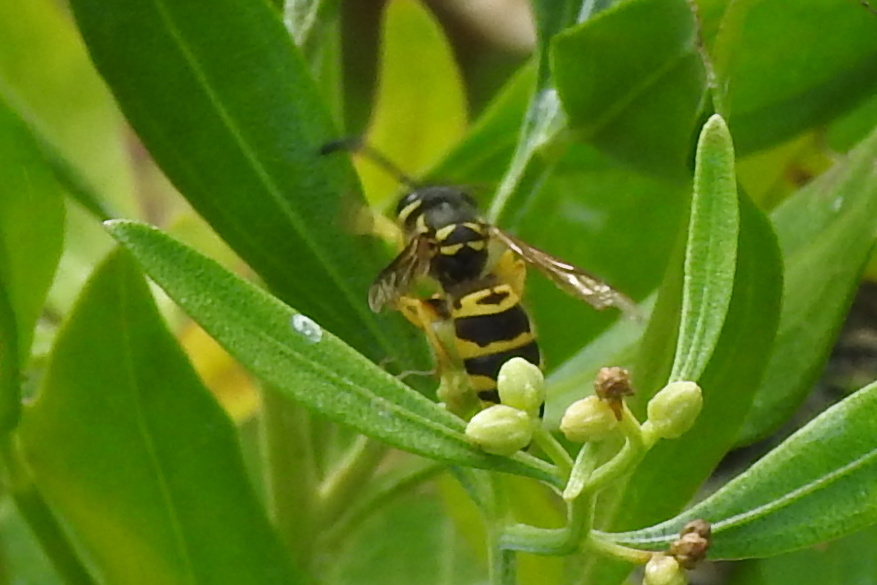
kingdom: Animalia
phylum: Arthropoda
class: Insecta
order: Hymenoptera
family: Vespidae
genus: Vespula
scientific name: Vespula maculifrons
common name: Eastern yellowjacket
